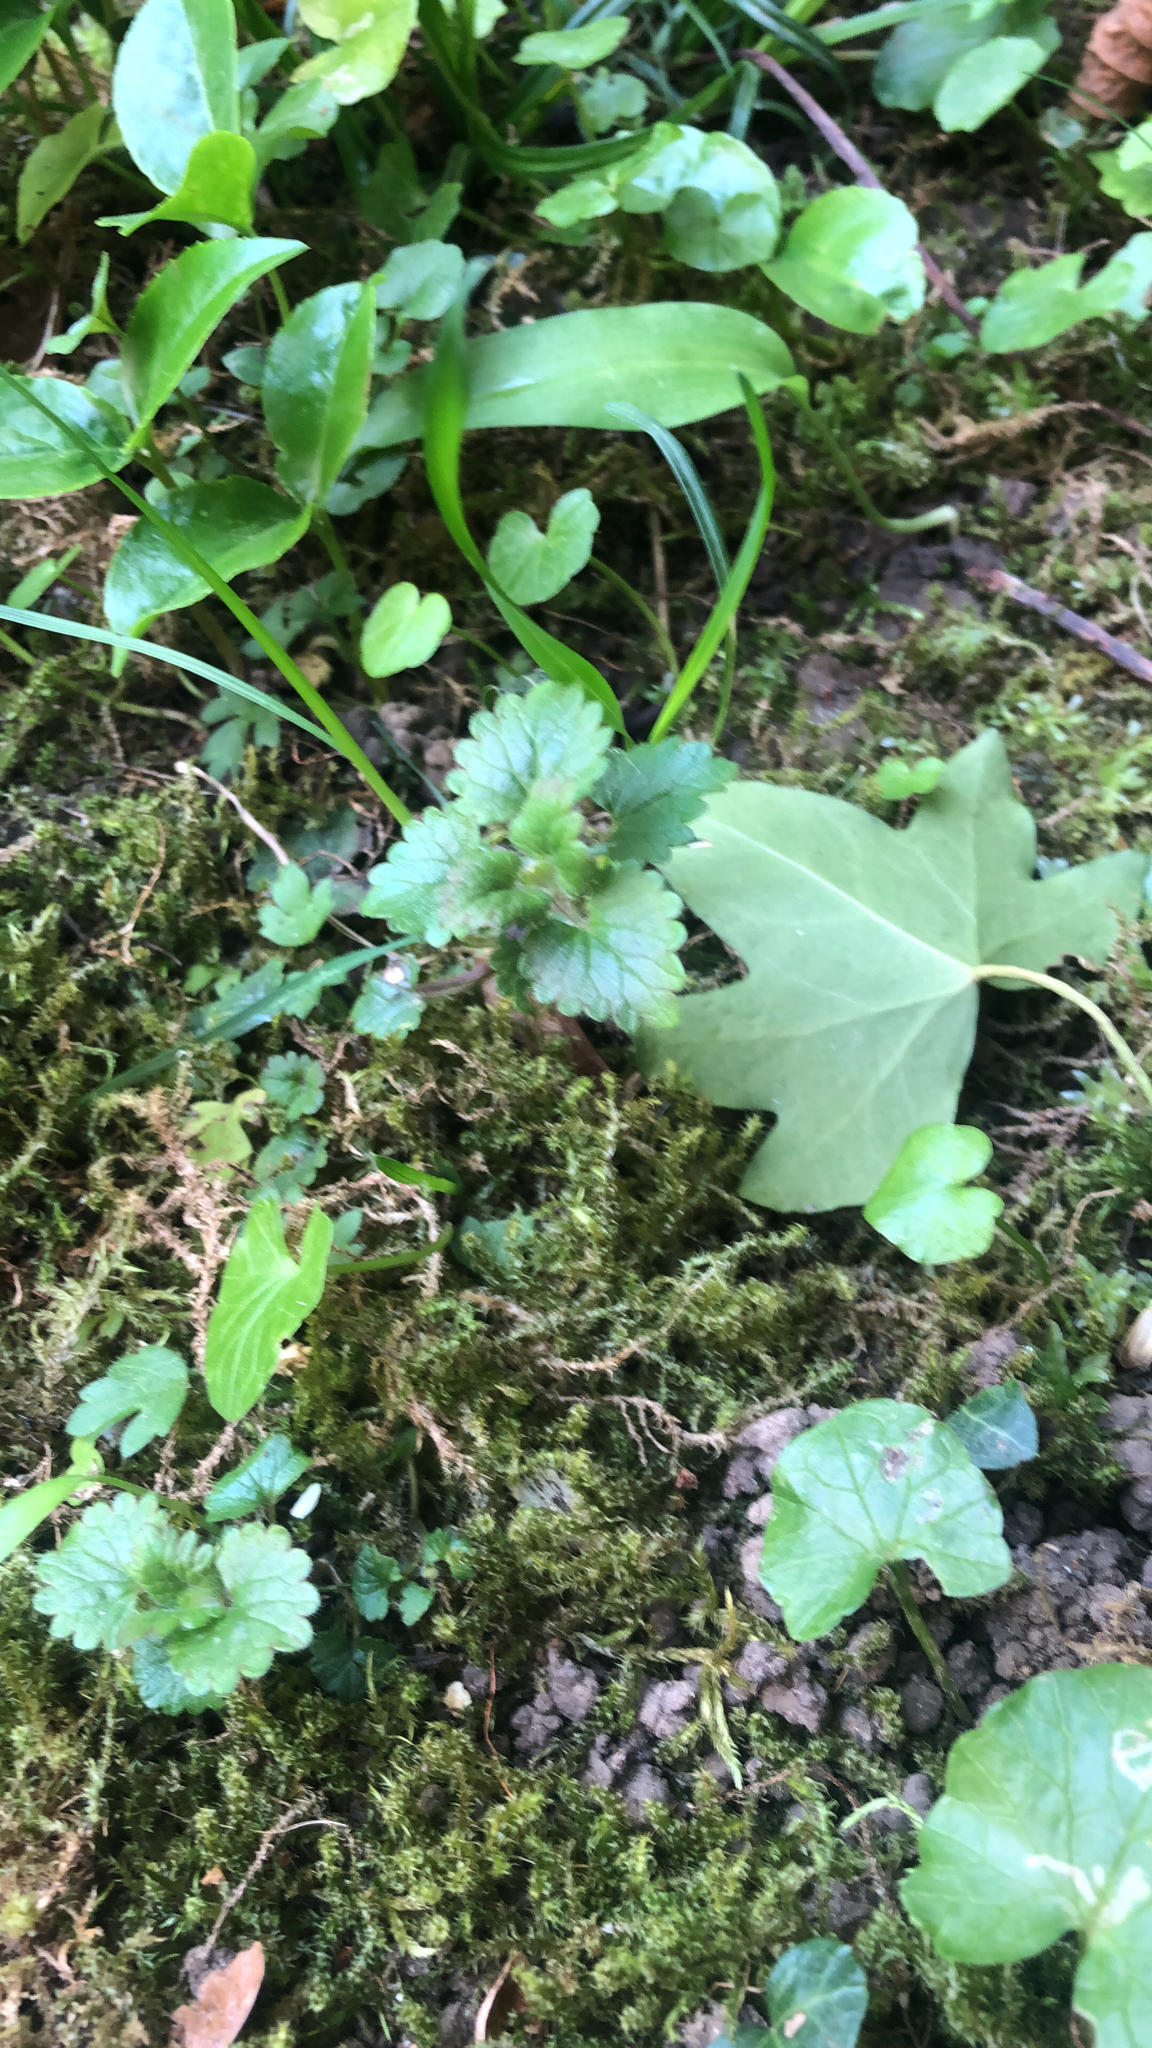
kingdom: Plantae
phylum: Tracheophyta
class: Magnoliopsida
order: Lamiales
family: Lamiaceae
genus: Glechoma
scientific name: Glechoma hederacea
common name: Ground ivy
